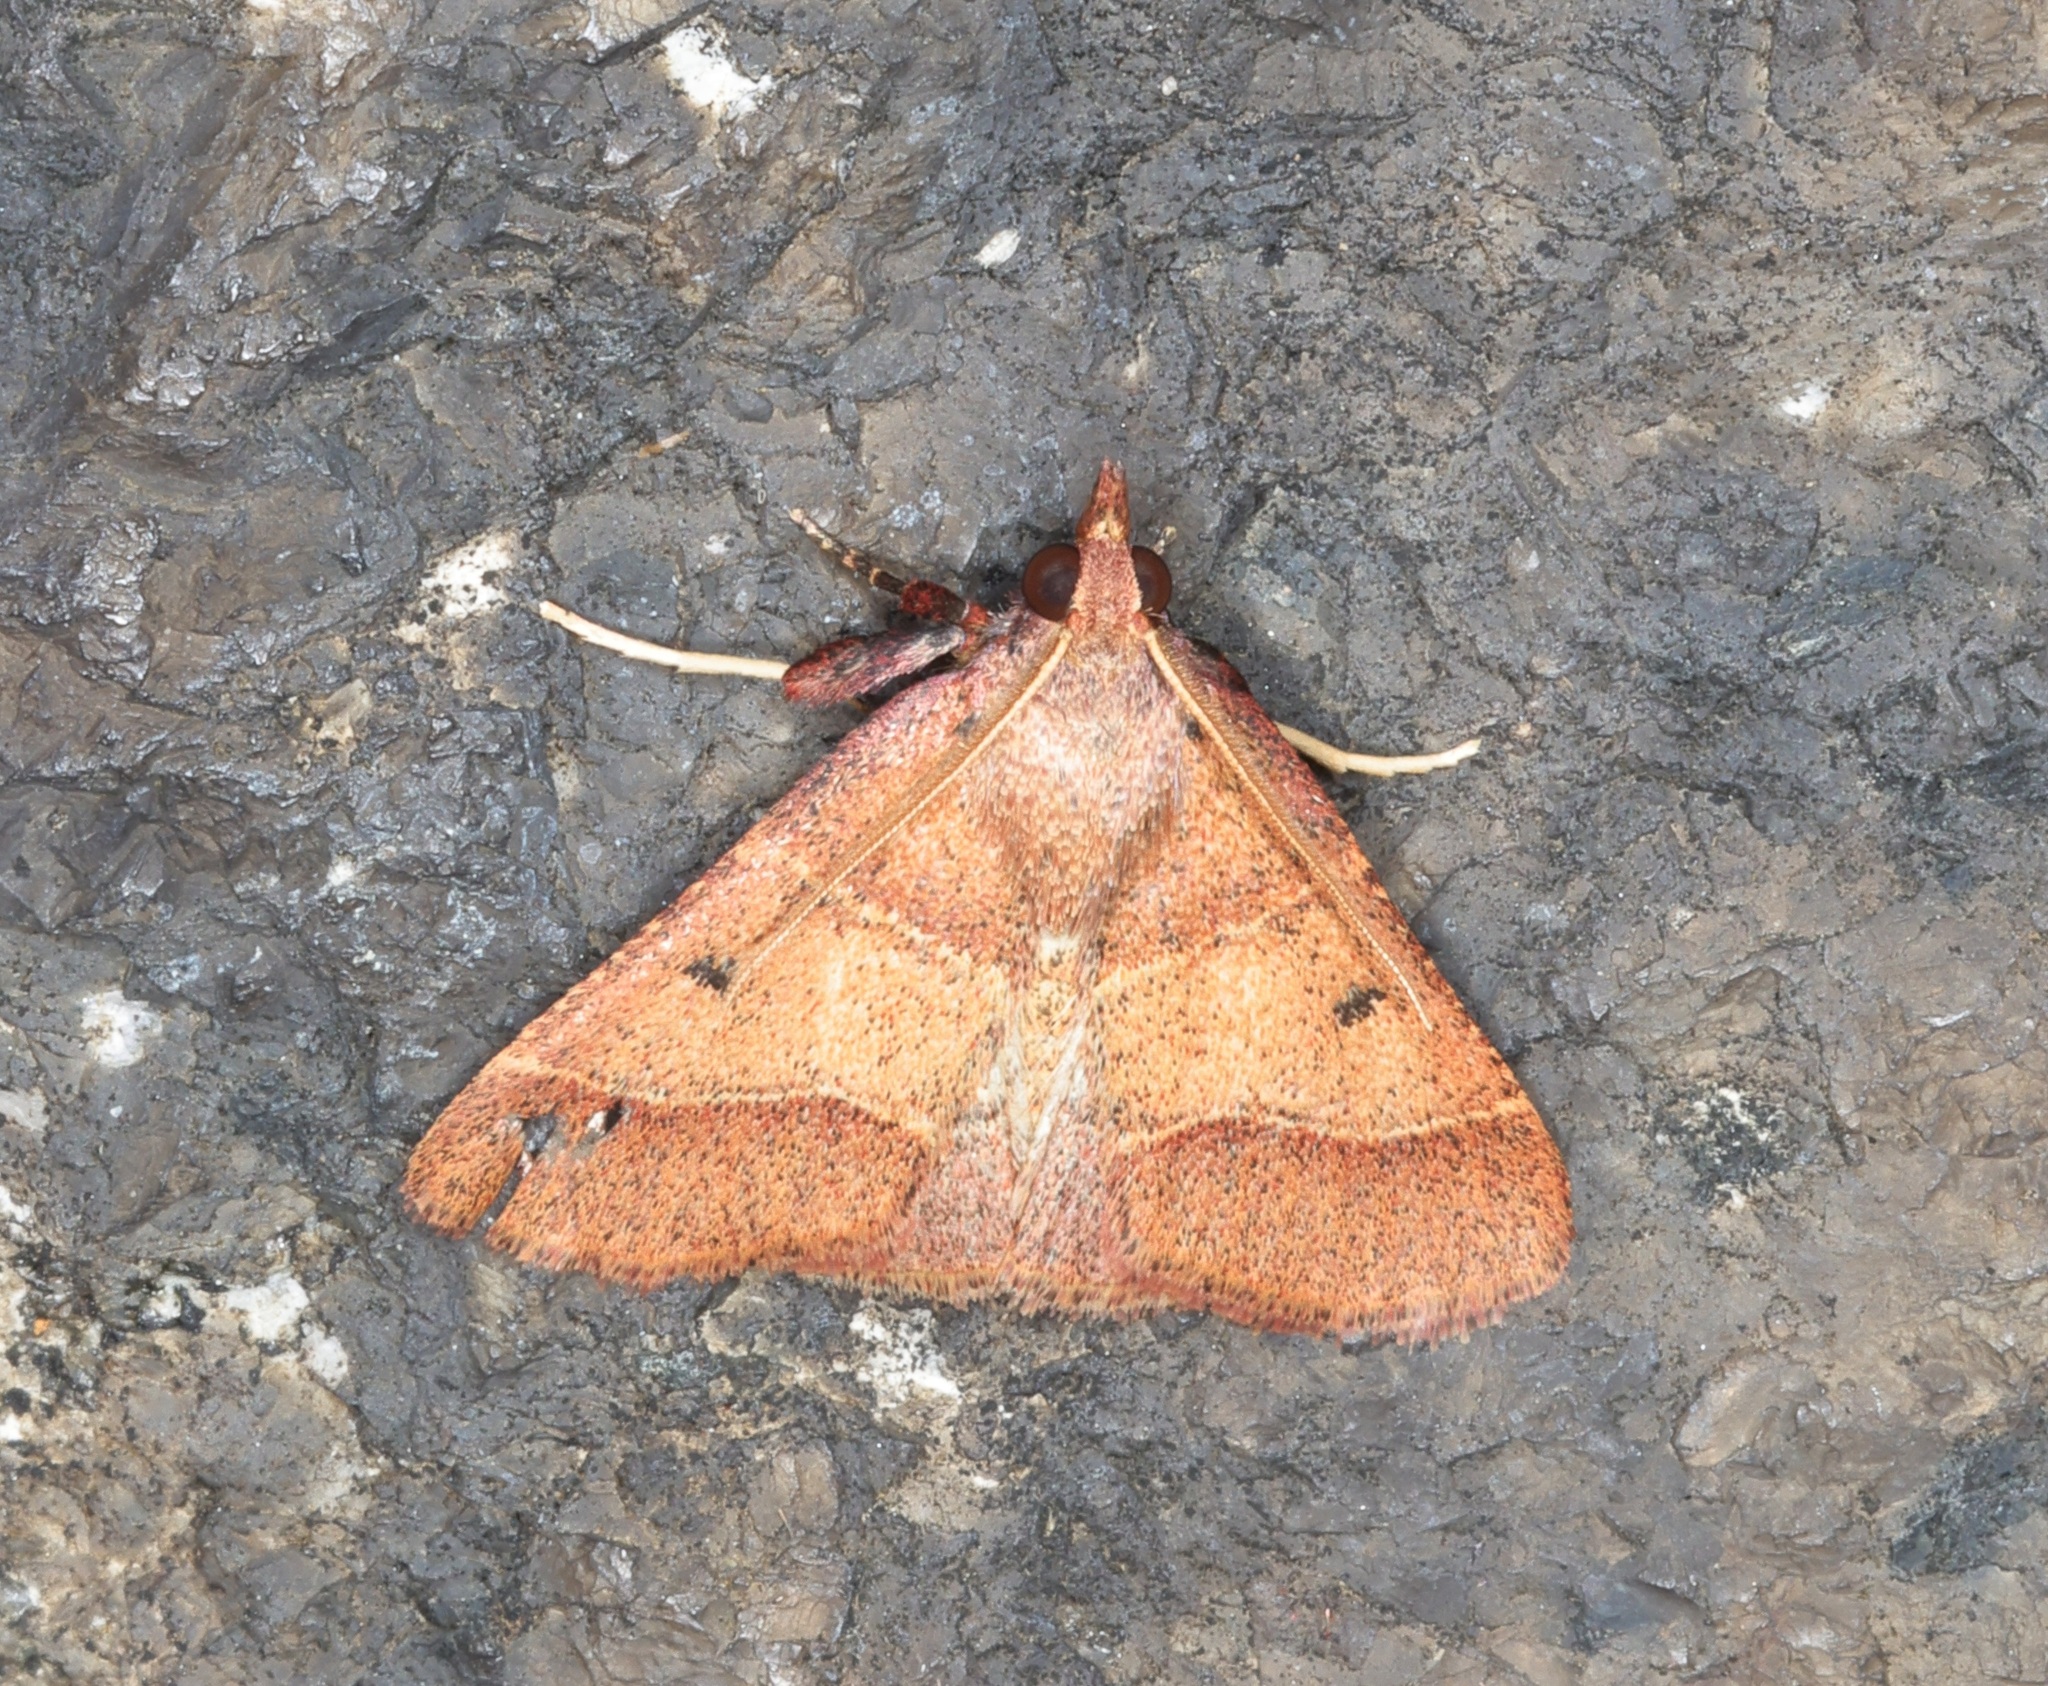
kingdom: Animalia
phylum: Arthropoda
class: Insecta
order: Lepidoptera
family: Pyralidae
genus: Arippara
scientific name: Arippara indicator
